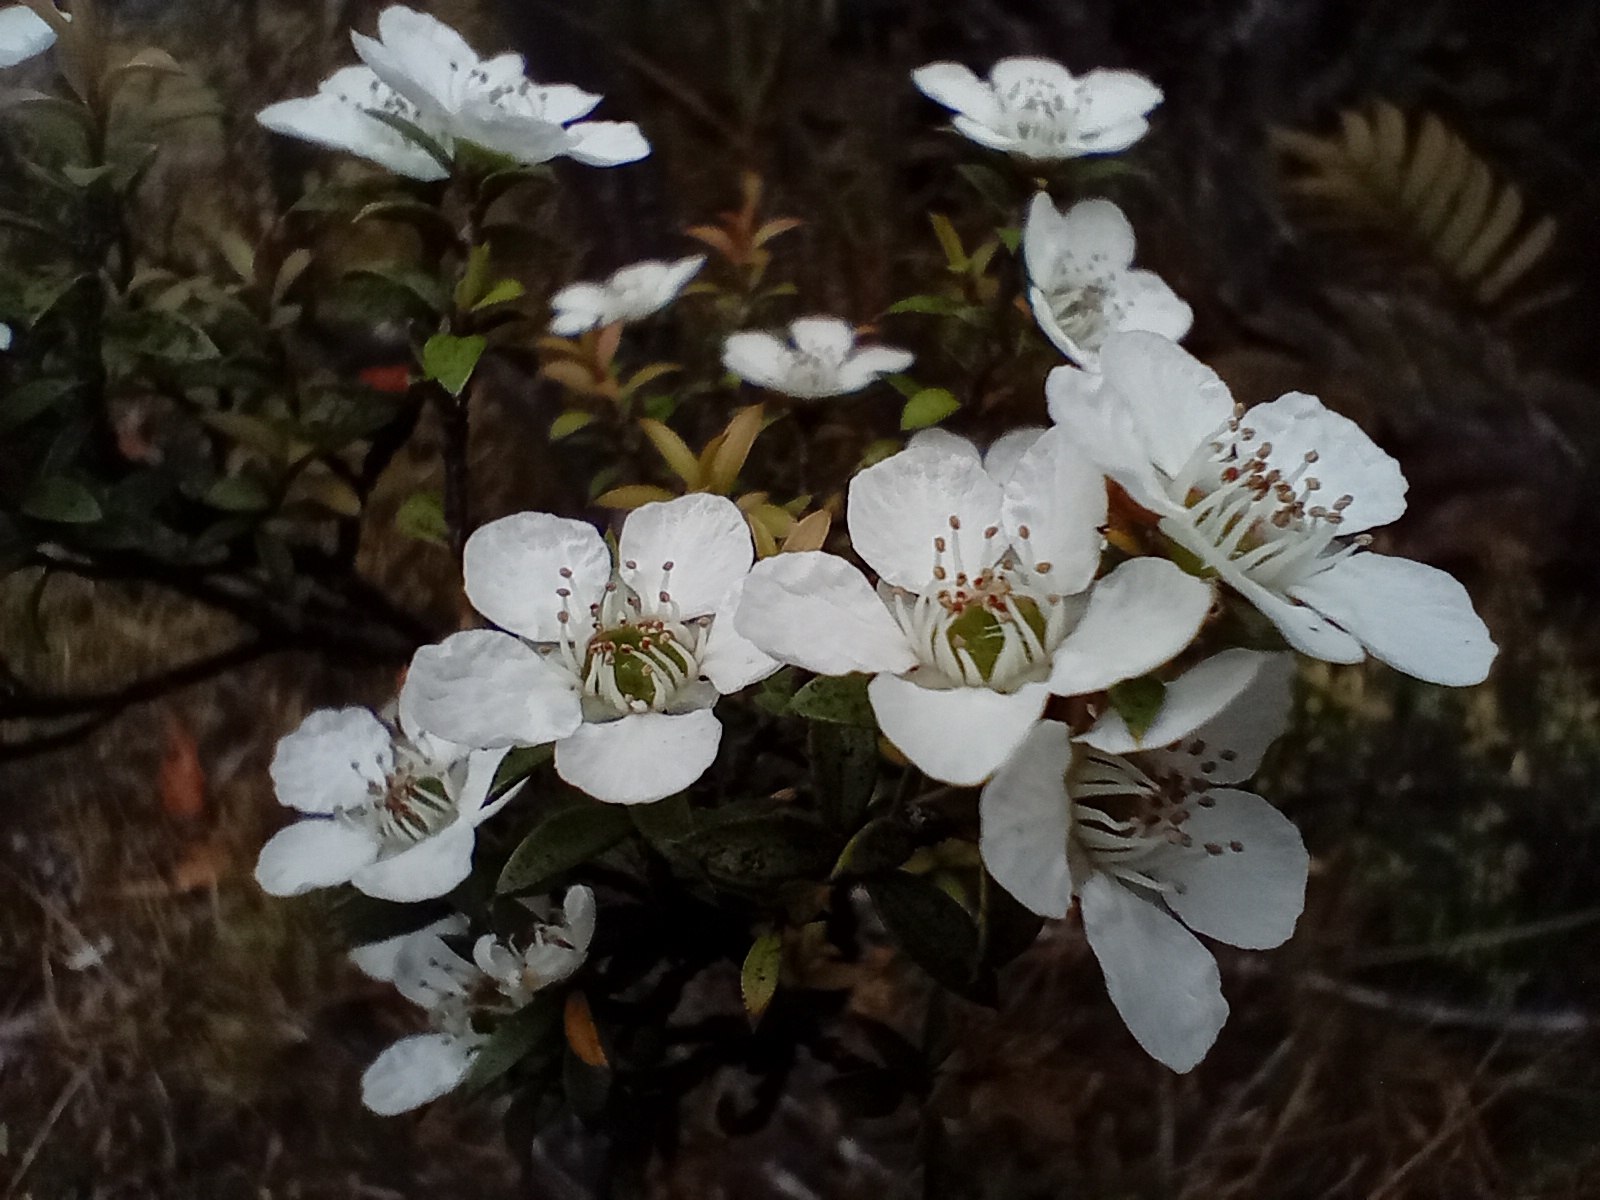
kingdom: Plantae
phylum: Tracheophyta
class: Magnoliopsida
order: Myrtales
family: Myrtaceae
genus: Leptospermum
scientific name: Leptospermum scoparium
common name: Broom tea-tree
